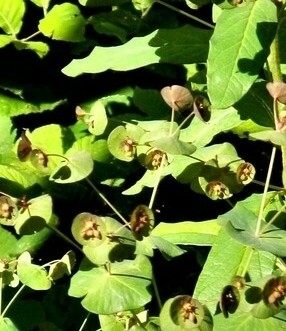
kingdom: Plantae
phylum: Tracheophyta
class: Magnoliopsida
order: Malpighiales
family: Euphorbiaceae
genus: Euphorbia
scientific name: Euphorbia oblongifolia
